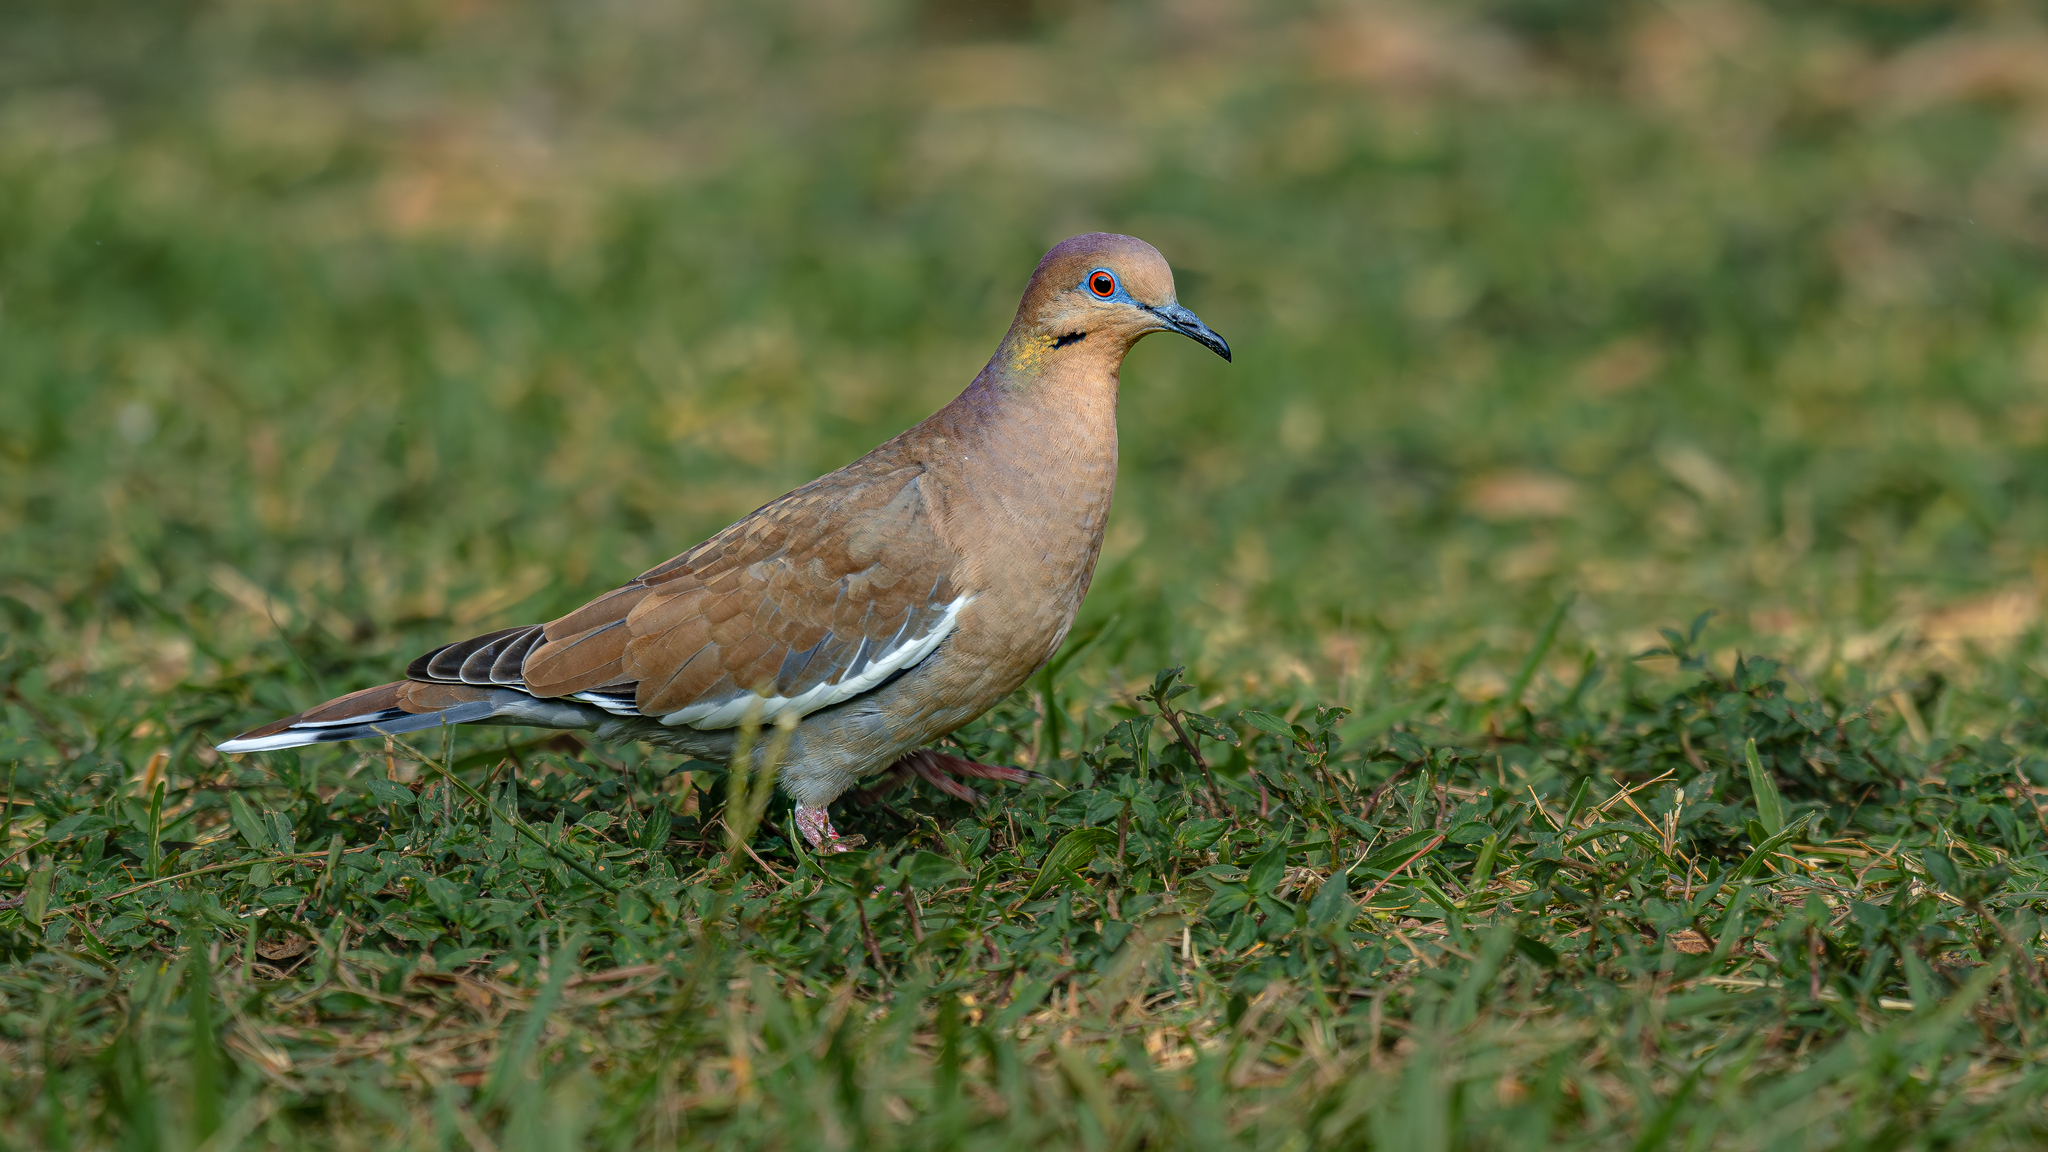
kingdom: Animalia
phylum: Chordata
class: Aves
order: Columbiformes
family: Columbidae
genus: Zenaida
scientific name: Zenaida asiatica
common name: White-winged dove
